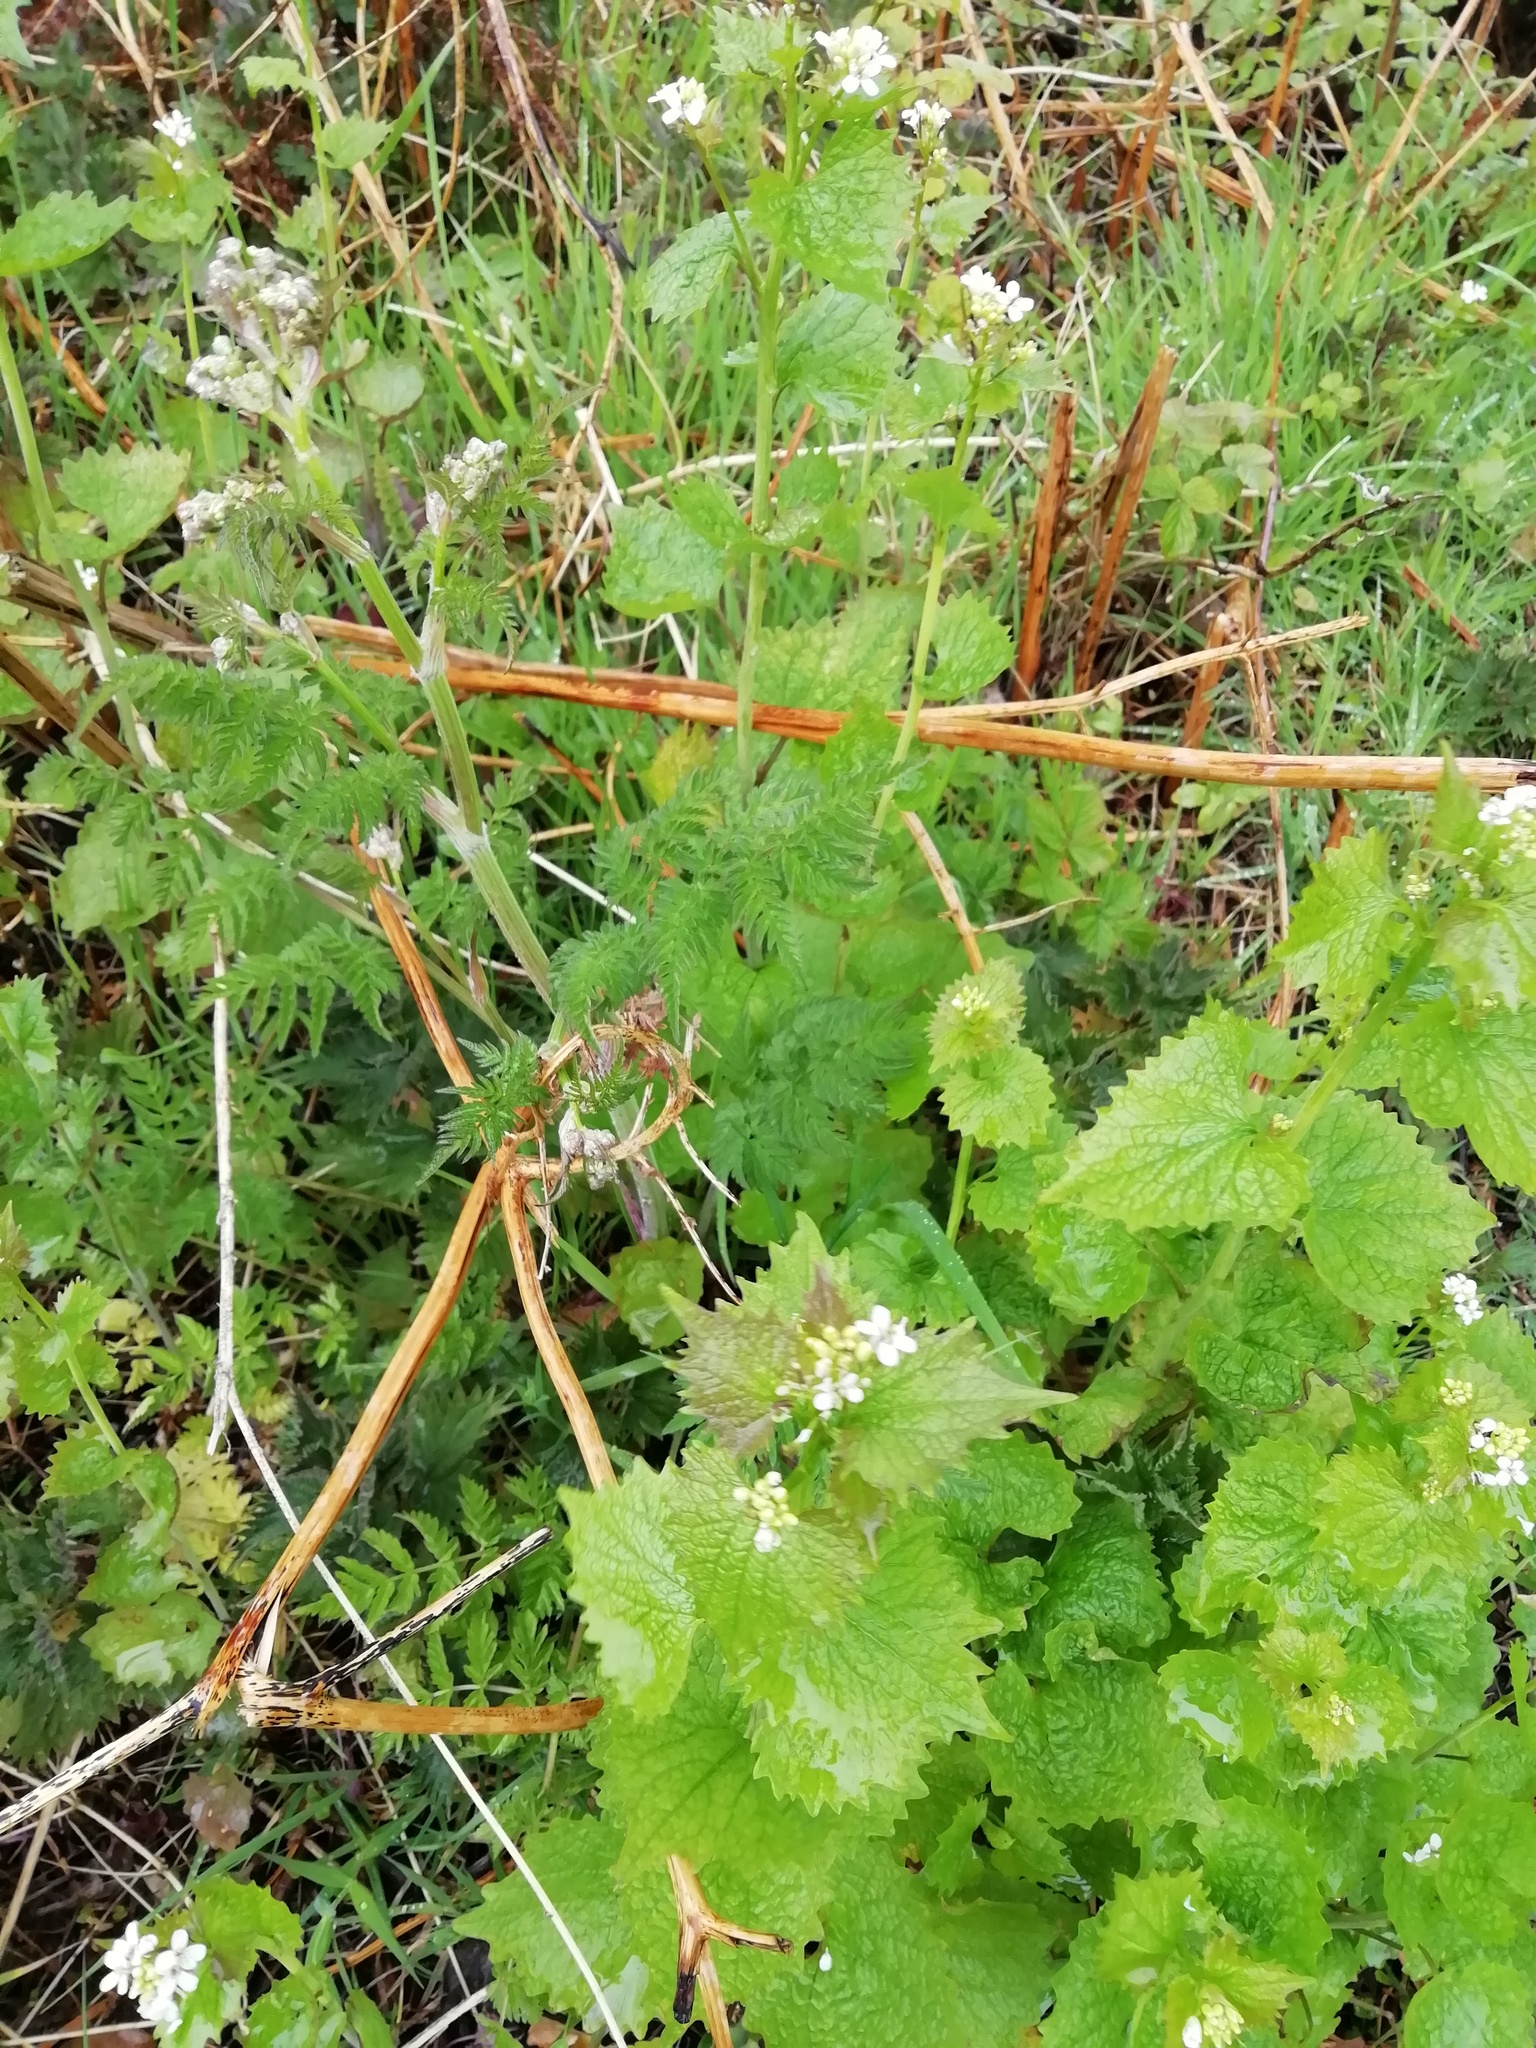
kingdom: Plantae
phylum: Tracheophyta
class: Magnoliopsida
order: Brassicales
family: Brassicaceae
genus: Alliaria
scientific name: Alliaria petiolata
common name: Garlic mustard
